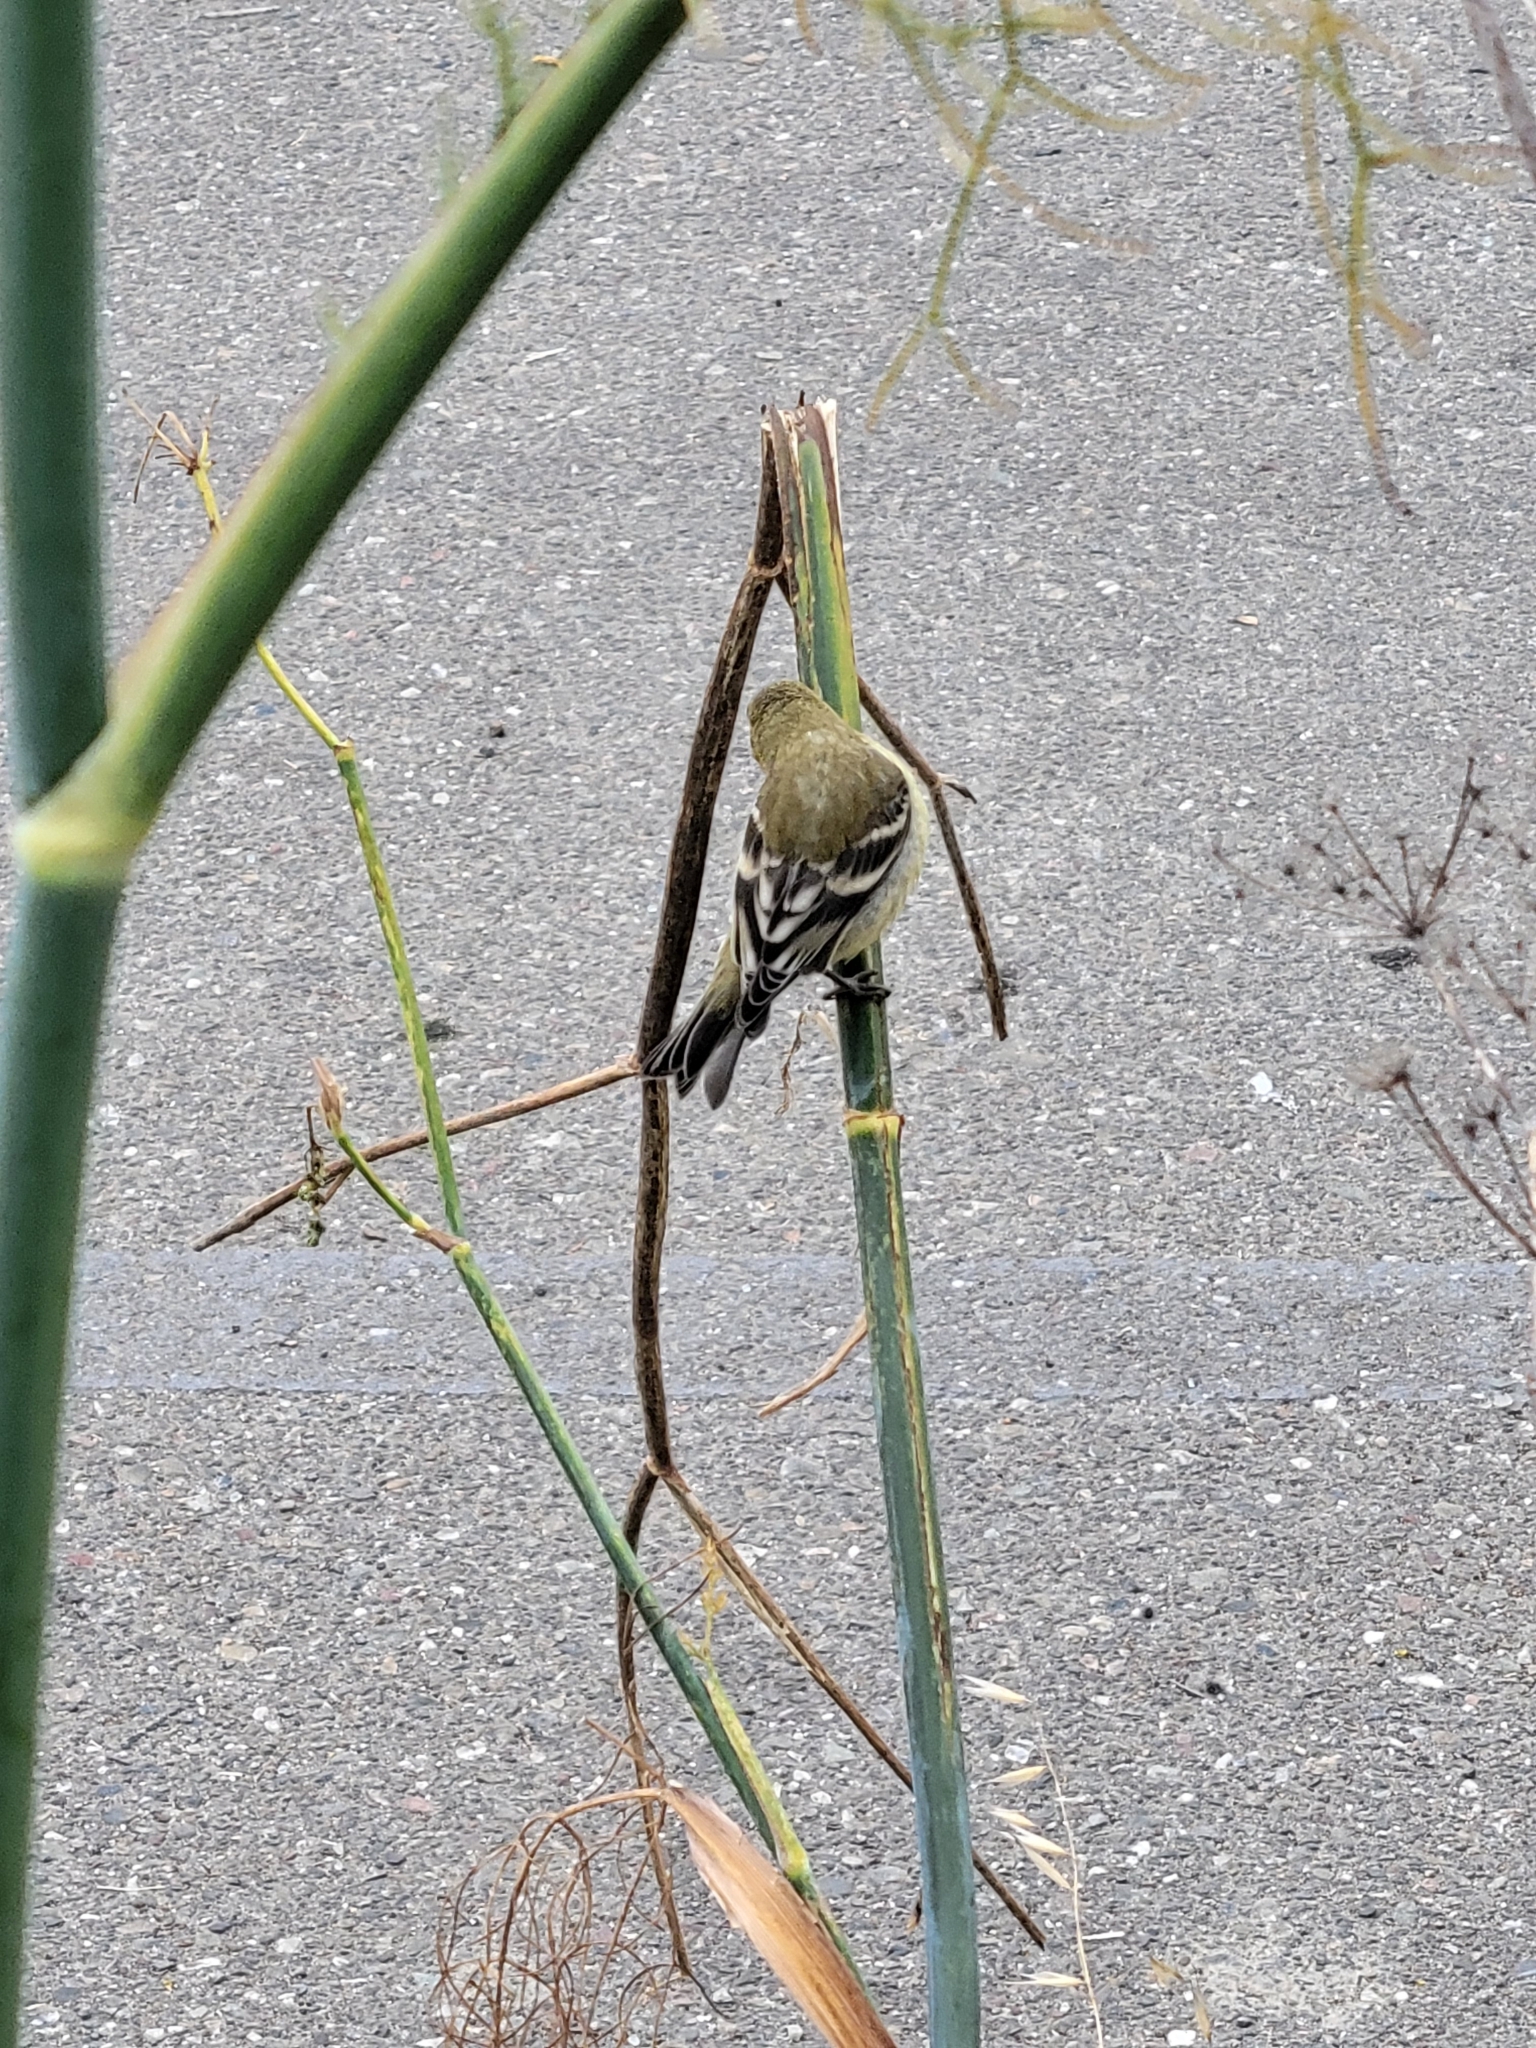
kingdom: Animalia
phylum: Chordata
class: Aves
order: Passeriformes
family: Fringillidae
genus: Spinus
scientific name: Spinus psaltria
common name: Lesser goldfinch
